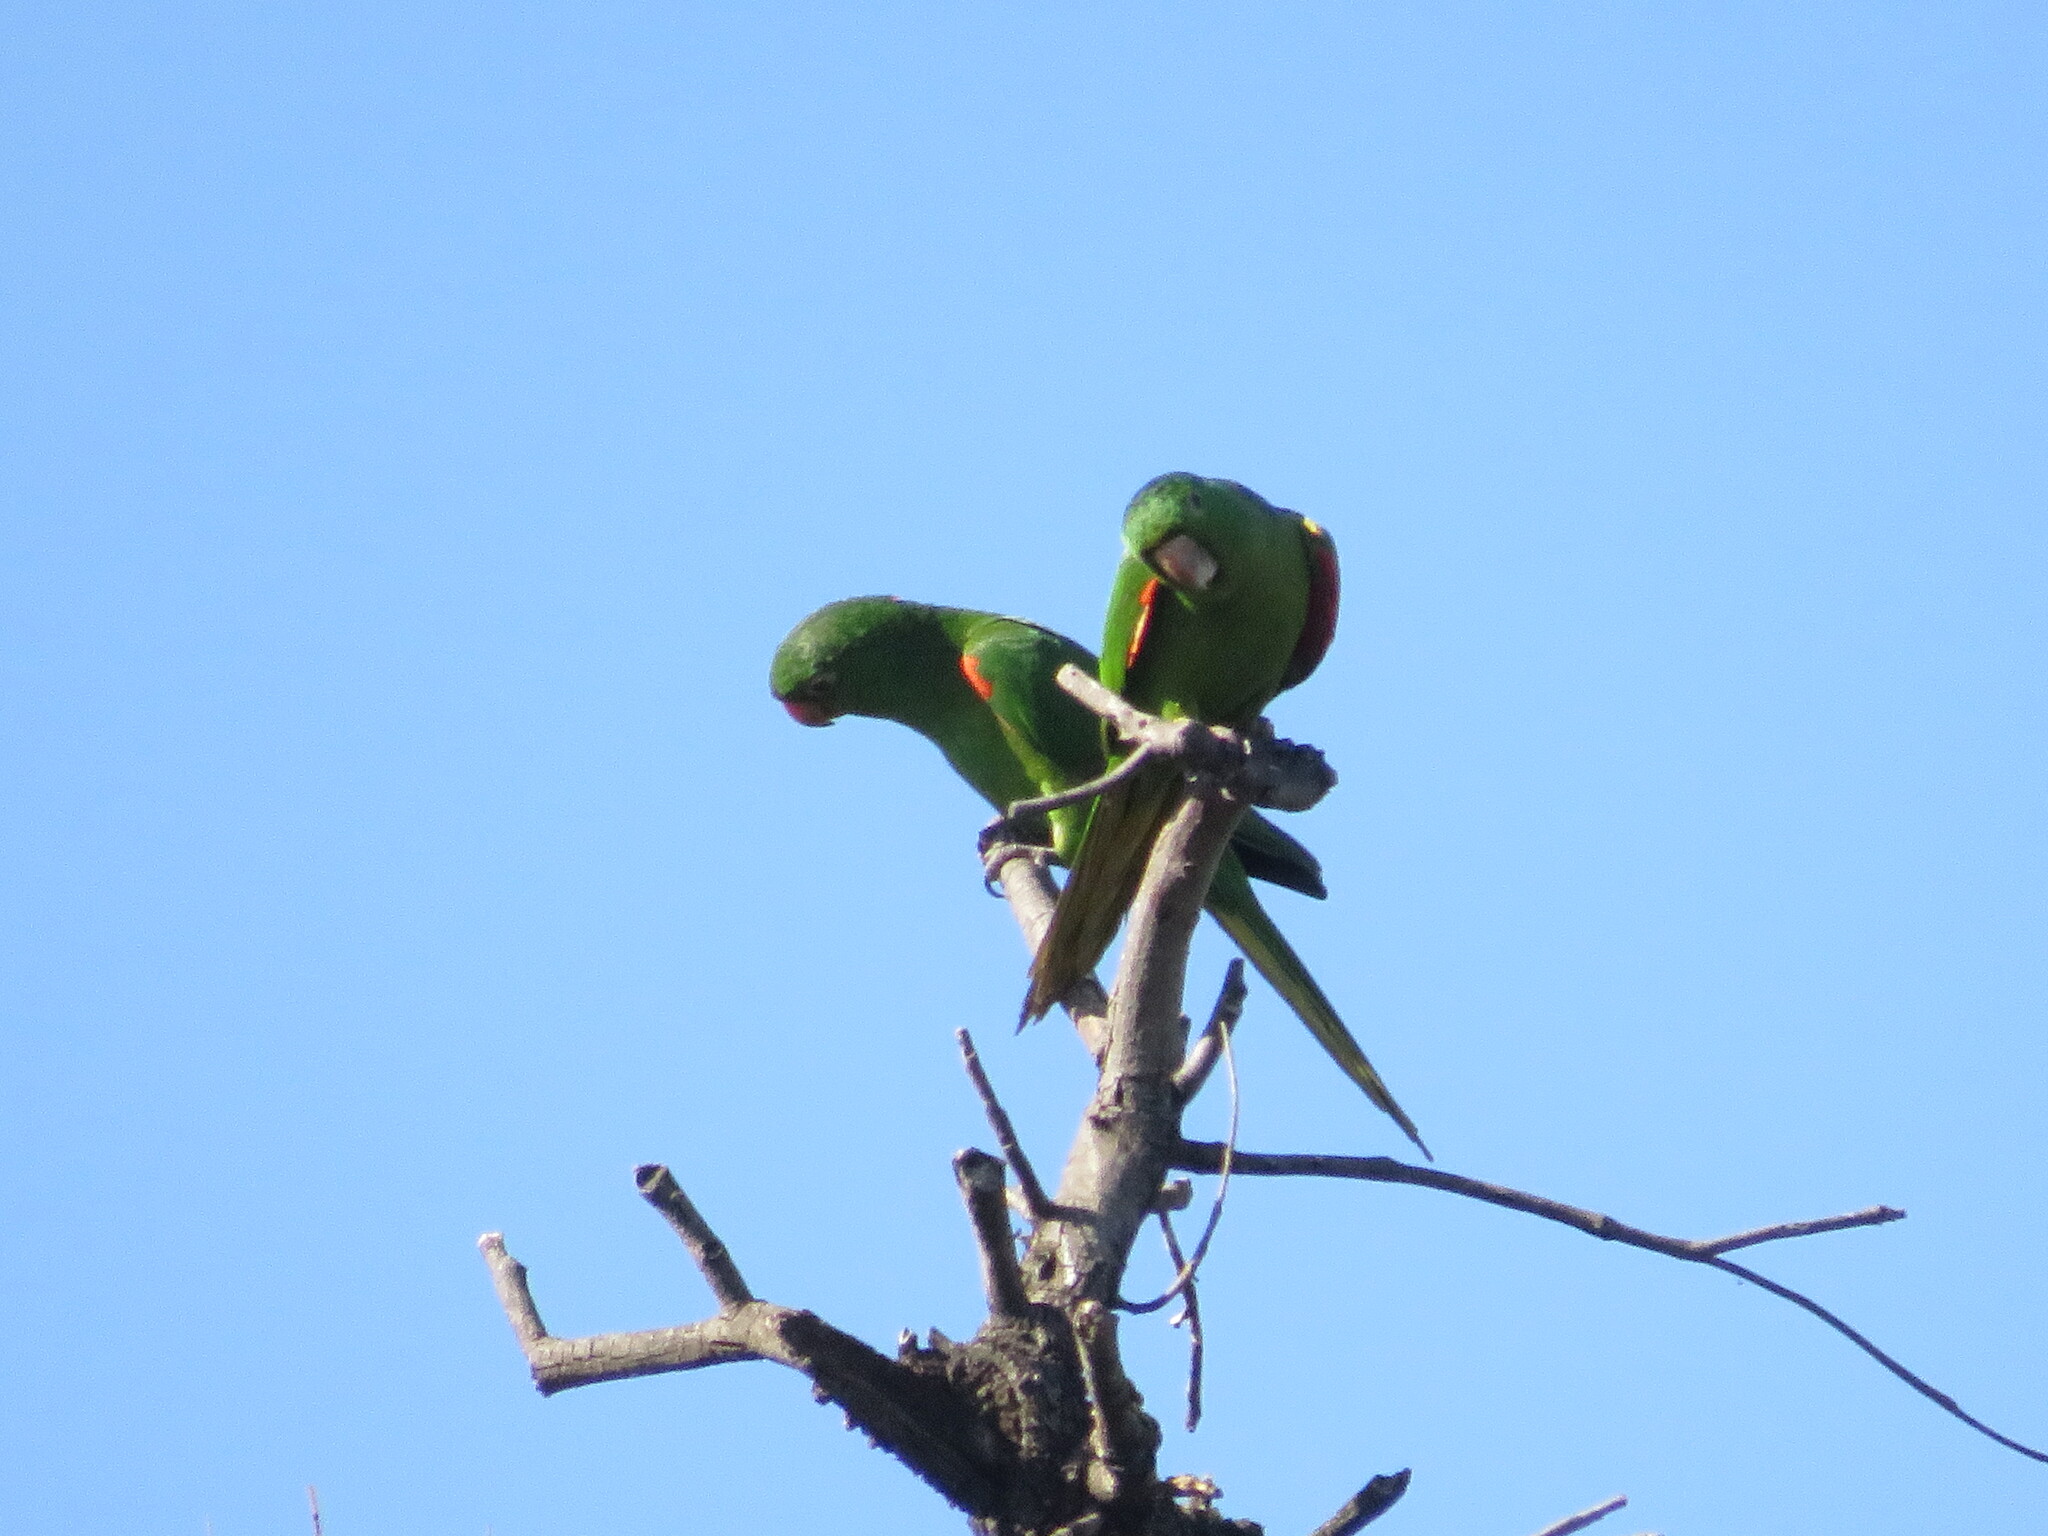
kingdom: Animalia
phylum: Chordata
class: Aves
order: Psittaciformes
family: Psittacidae
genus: Aratinga
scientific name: Aratinga leucophthalma
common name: White-eyed parakeet
